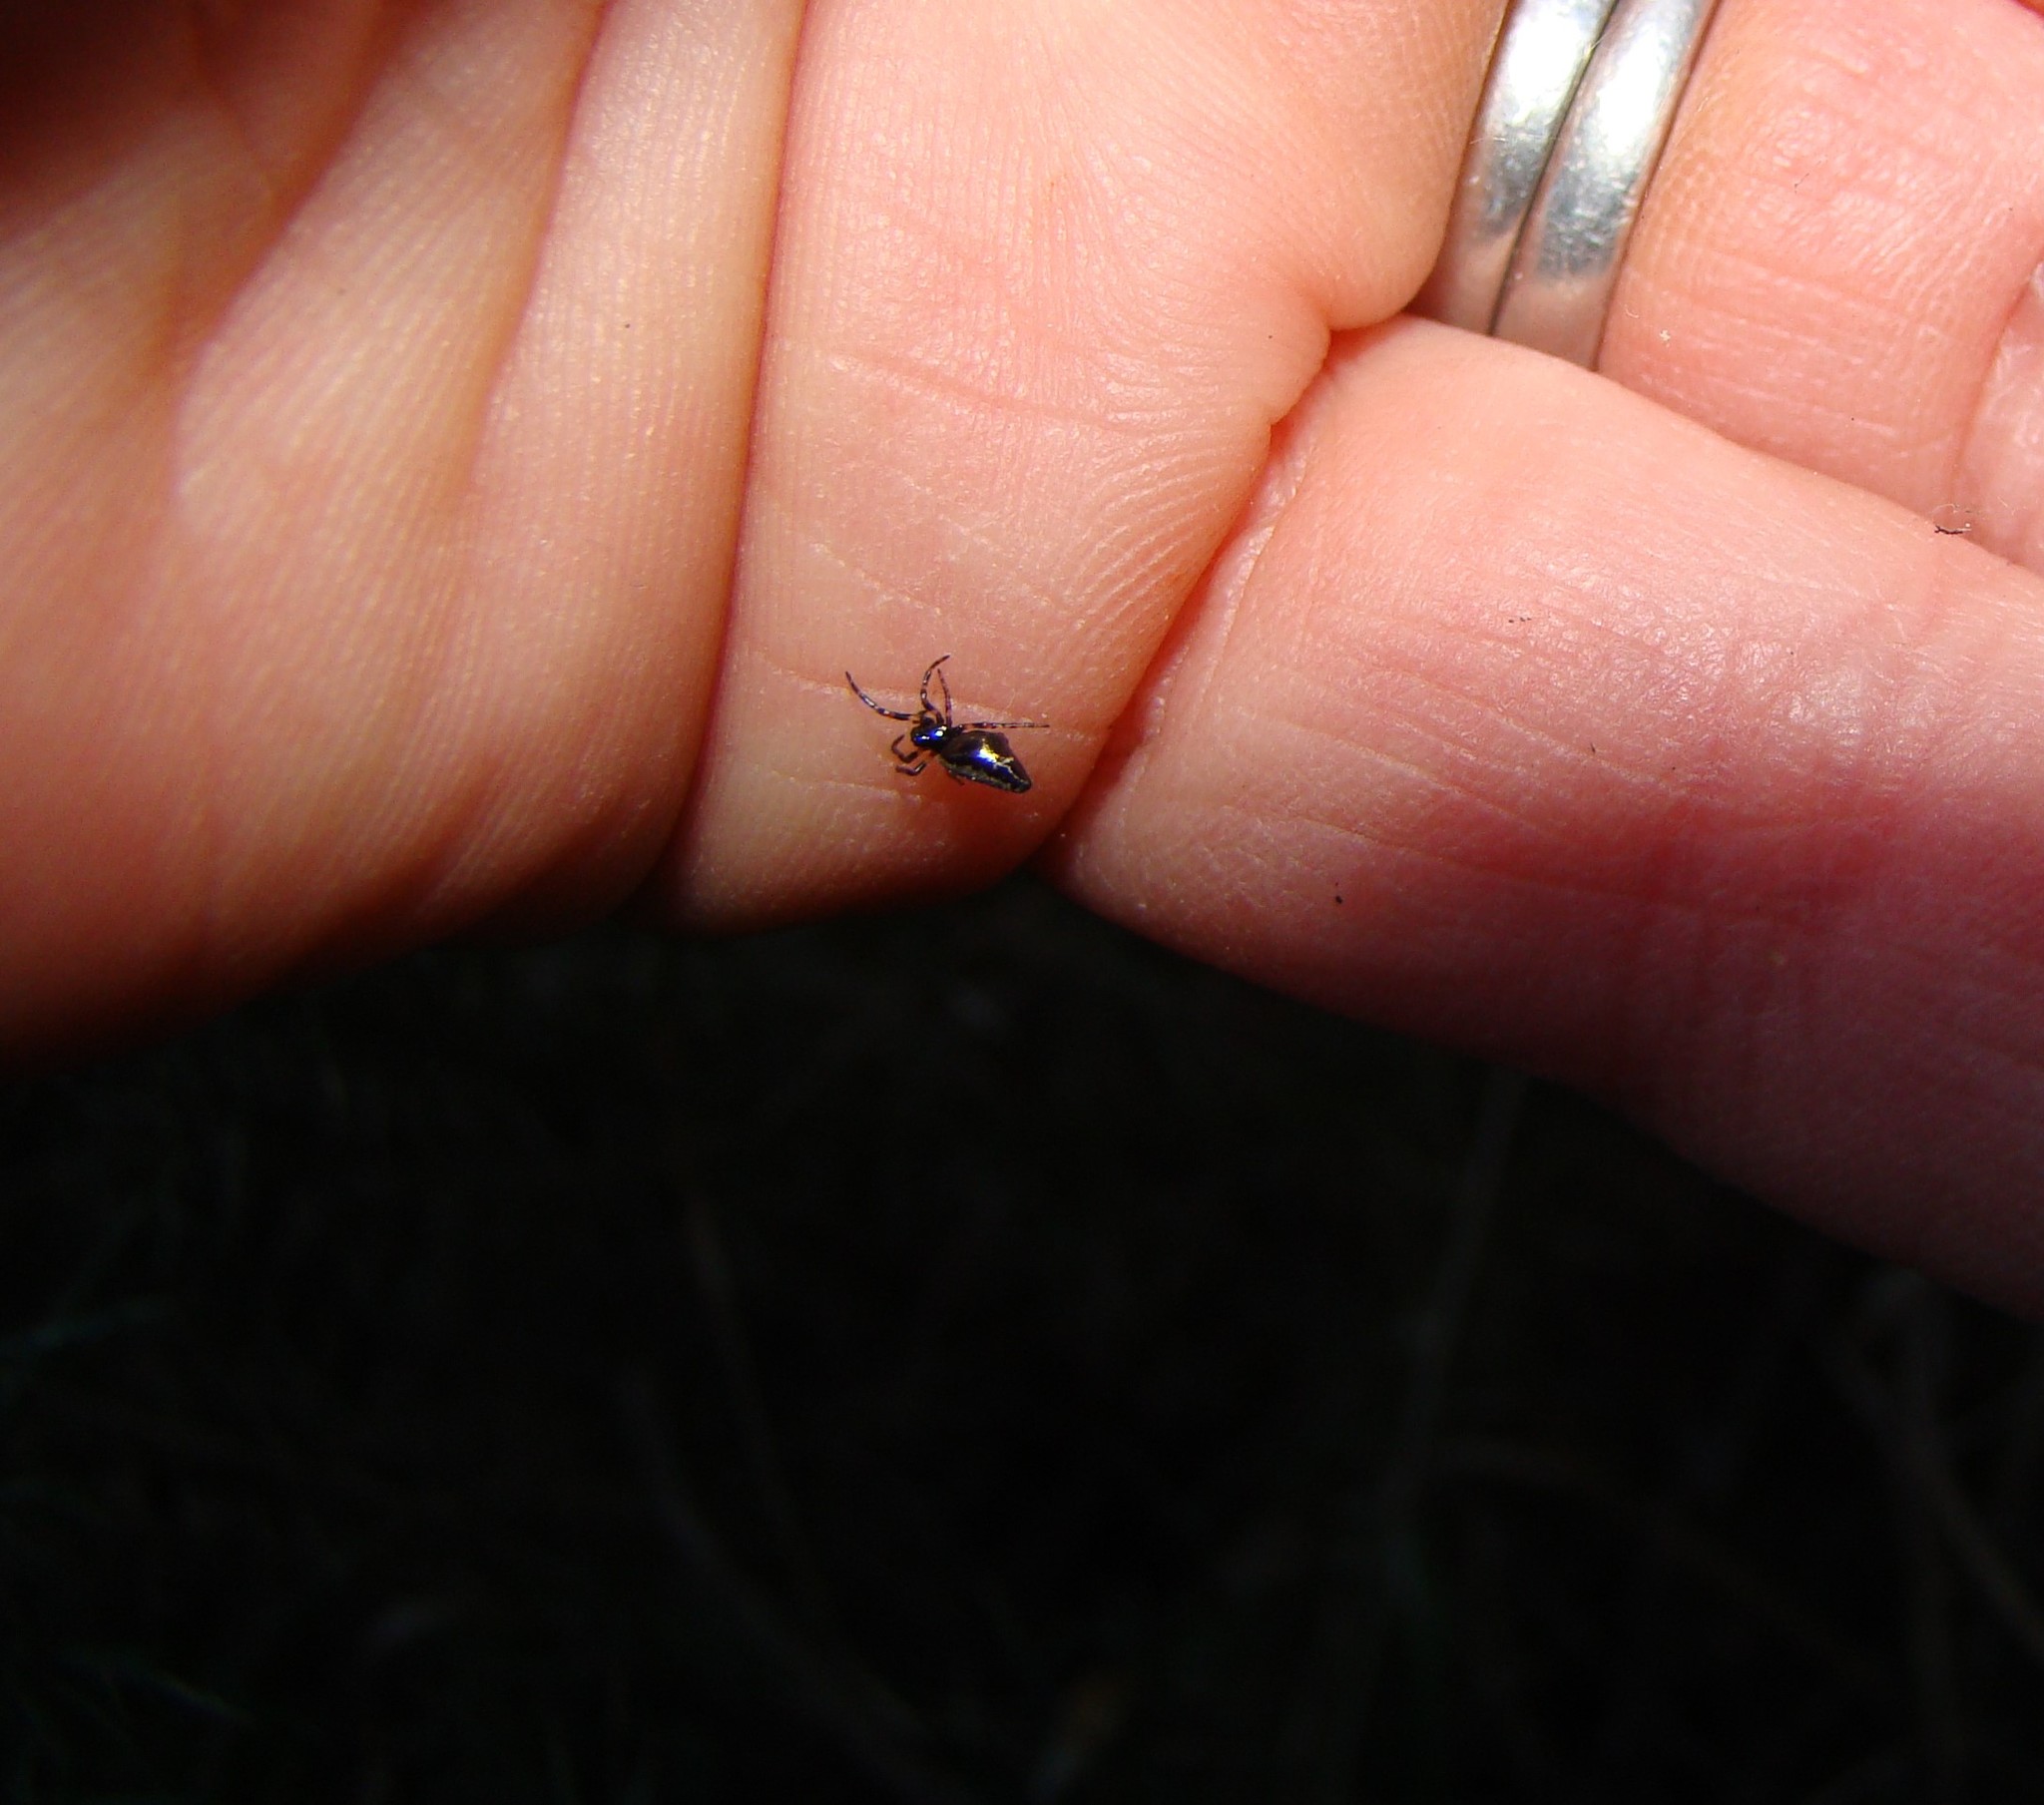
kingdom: Animalia
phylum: Arthropoda
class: Arachnida
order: Araneae
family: Araneidae
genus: Cyclosa
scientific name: Cyclosa trilobata
